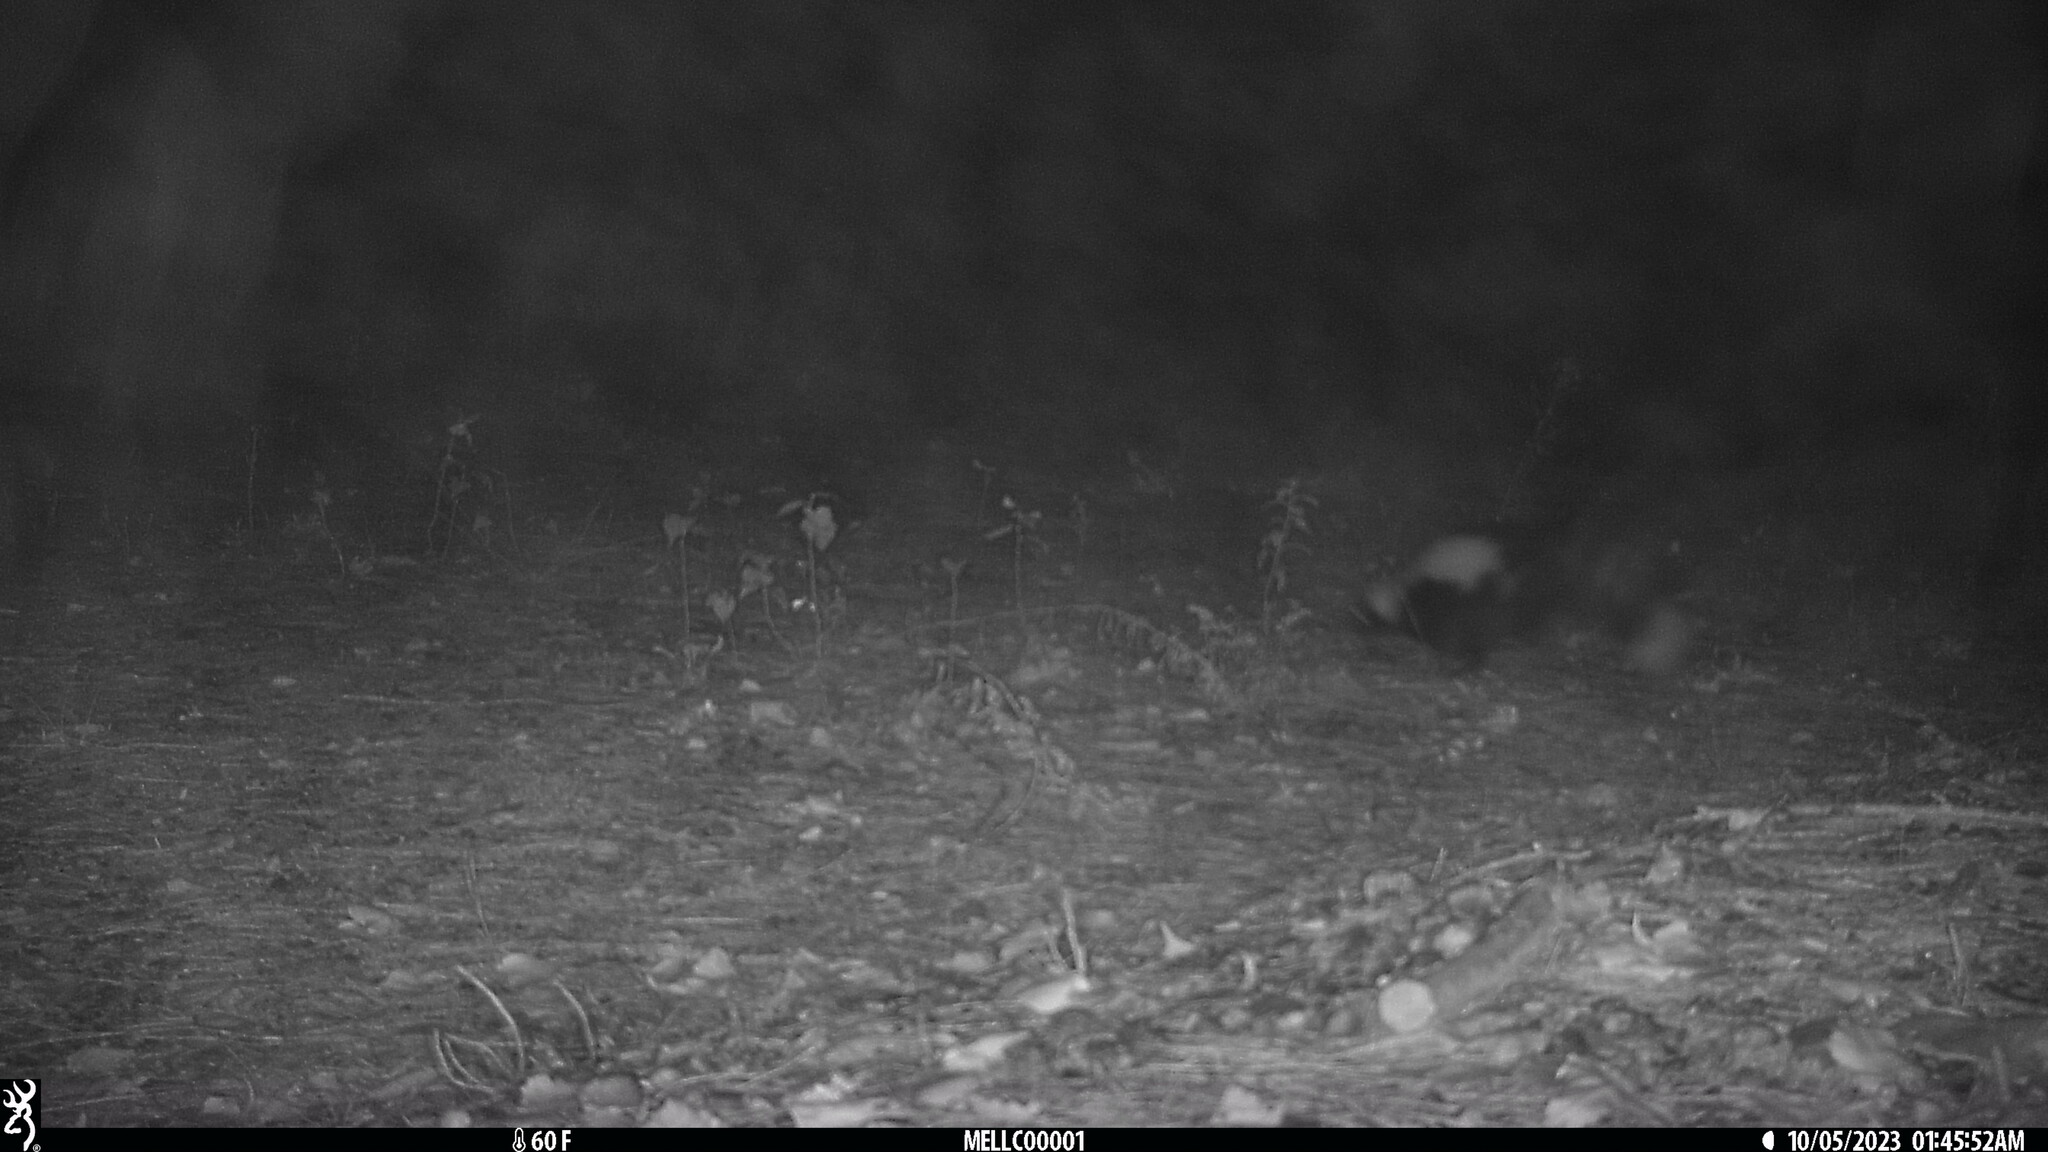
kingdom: Animalia
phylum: Chordata
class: Mammalia
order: Carnivora
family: Mephitidae
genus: Mephitis
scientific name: Mephitis mephitis
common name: Striped skunk
